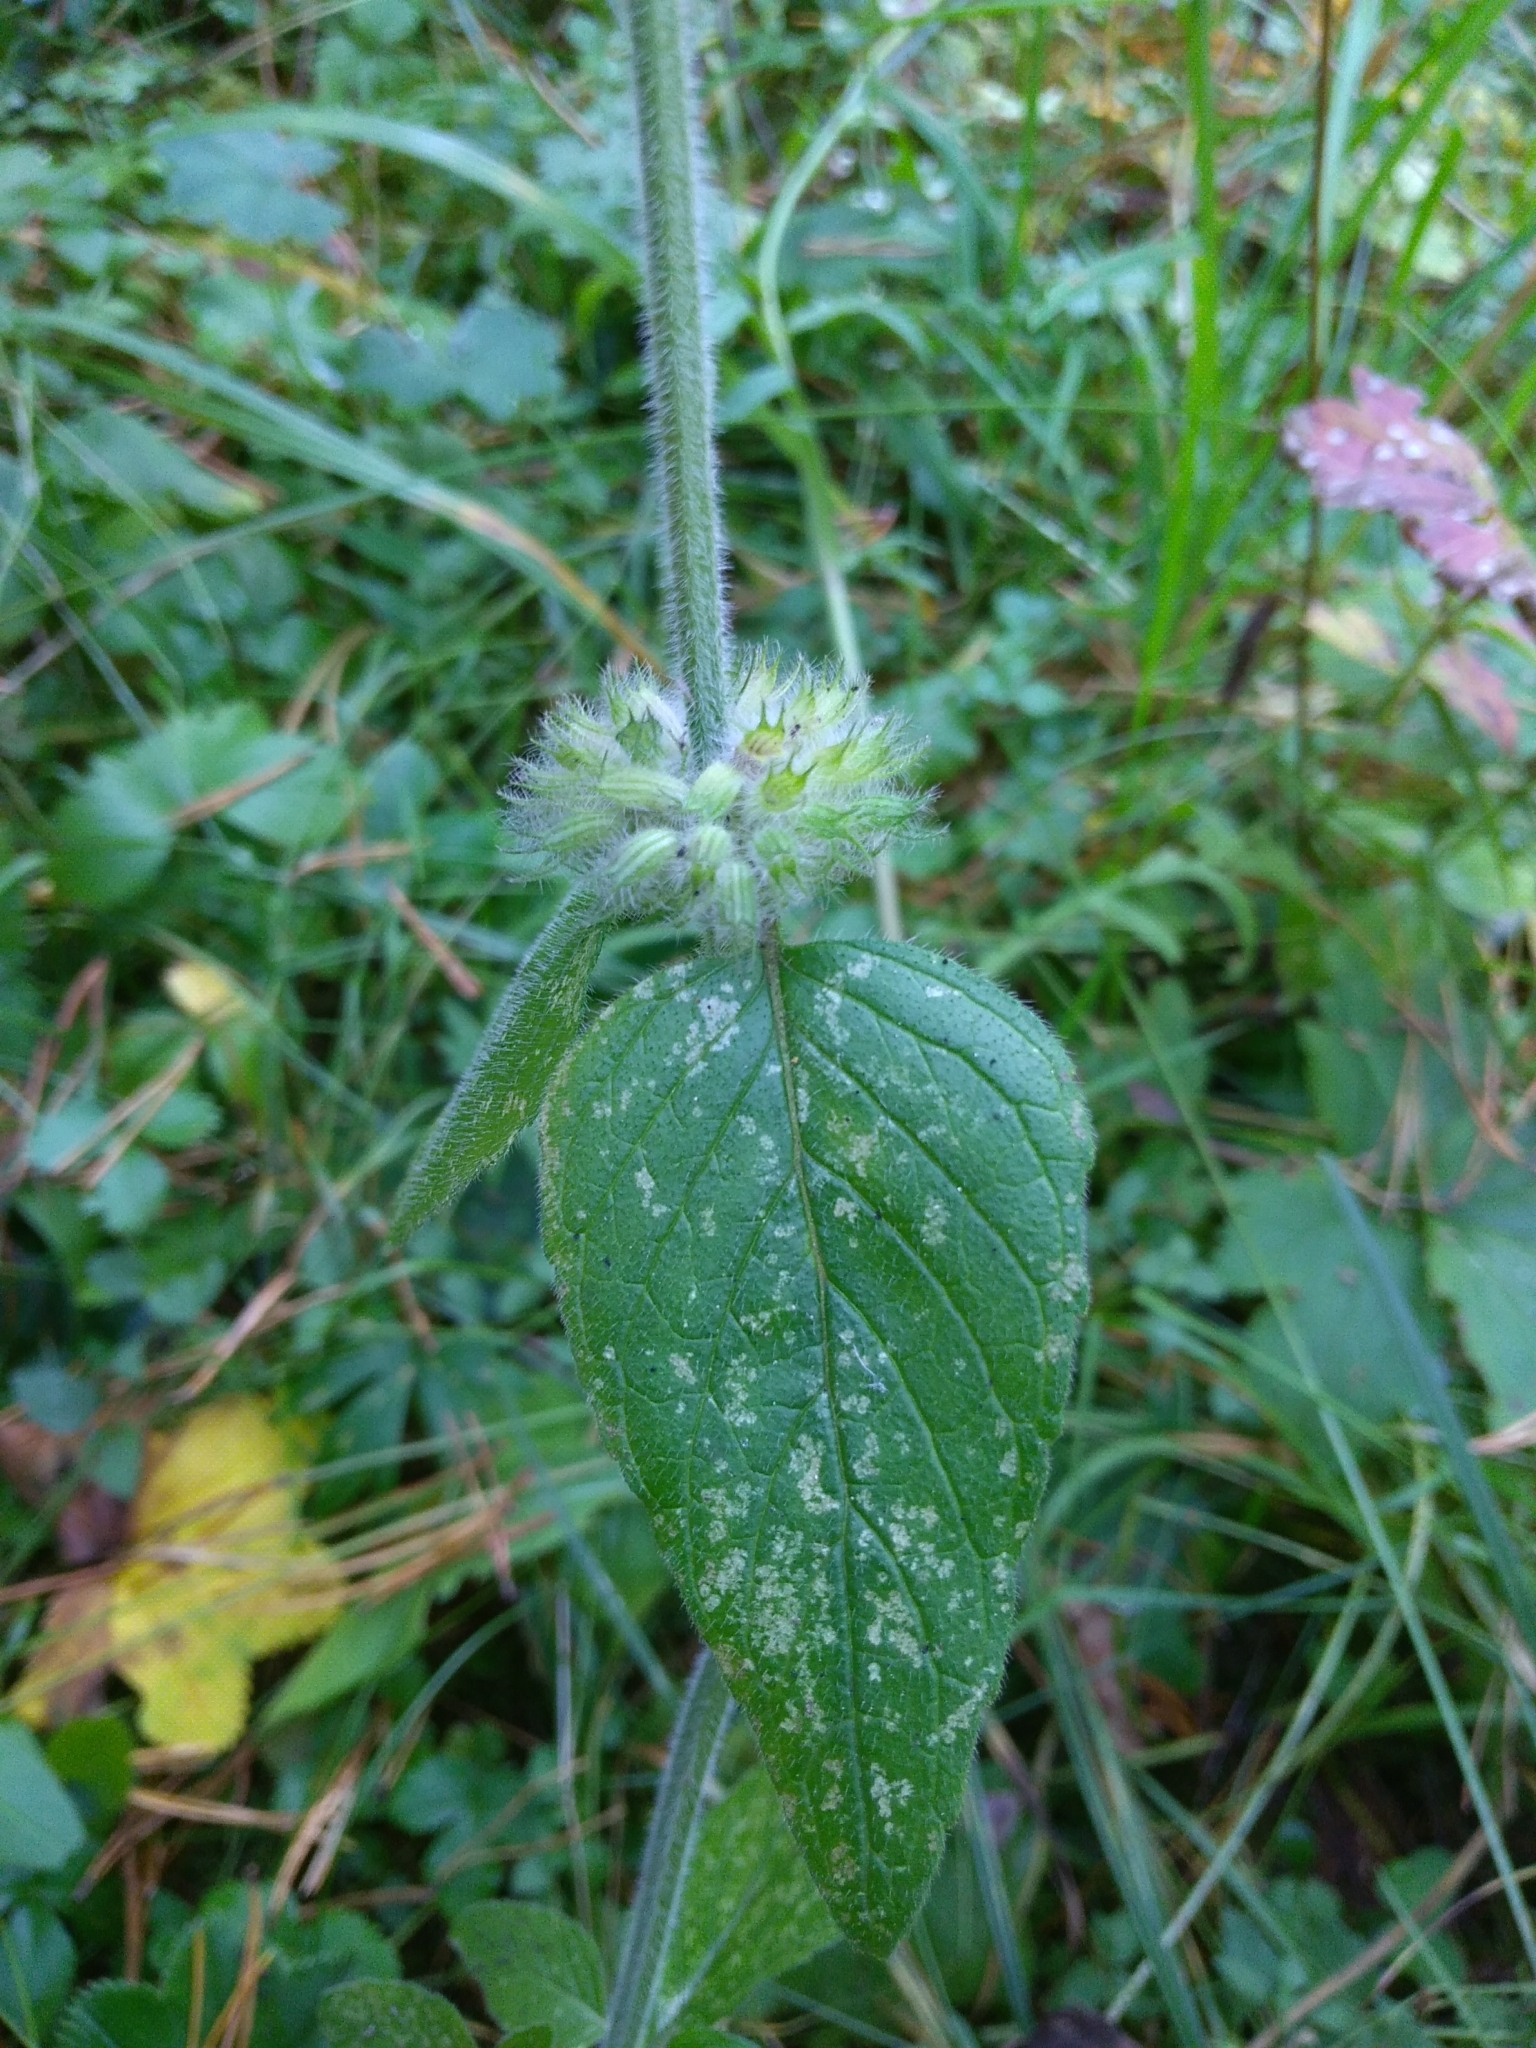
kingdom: Plantae
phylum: Tracheophyta
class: Magnoliopsida
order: Lamiales
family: Lamiaceae
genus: Clinopodium
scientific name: Clinopodium vulgare
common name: Wild basil
